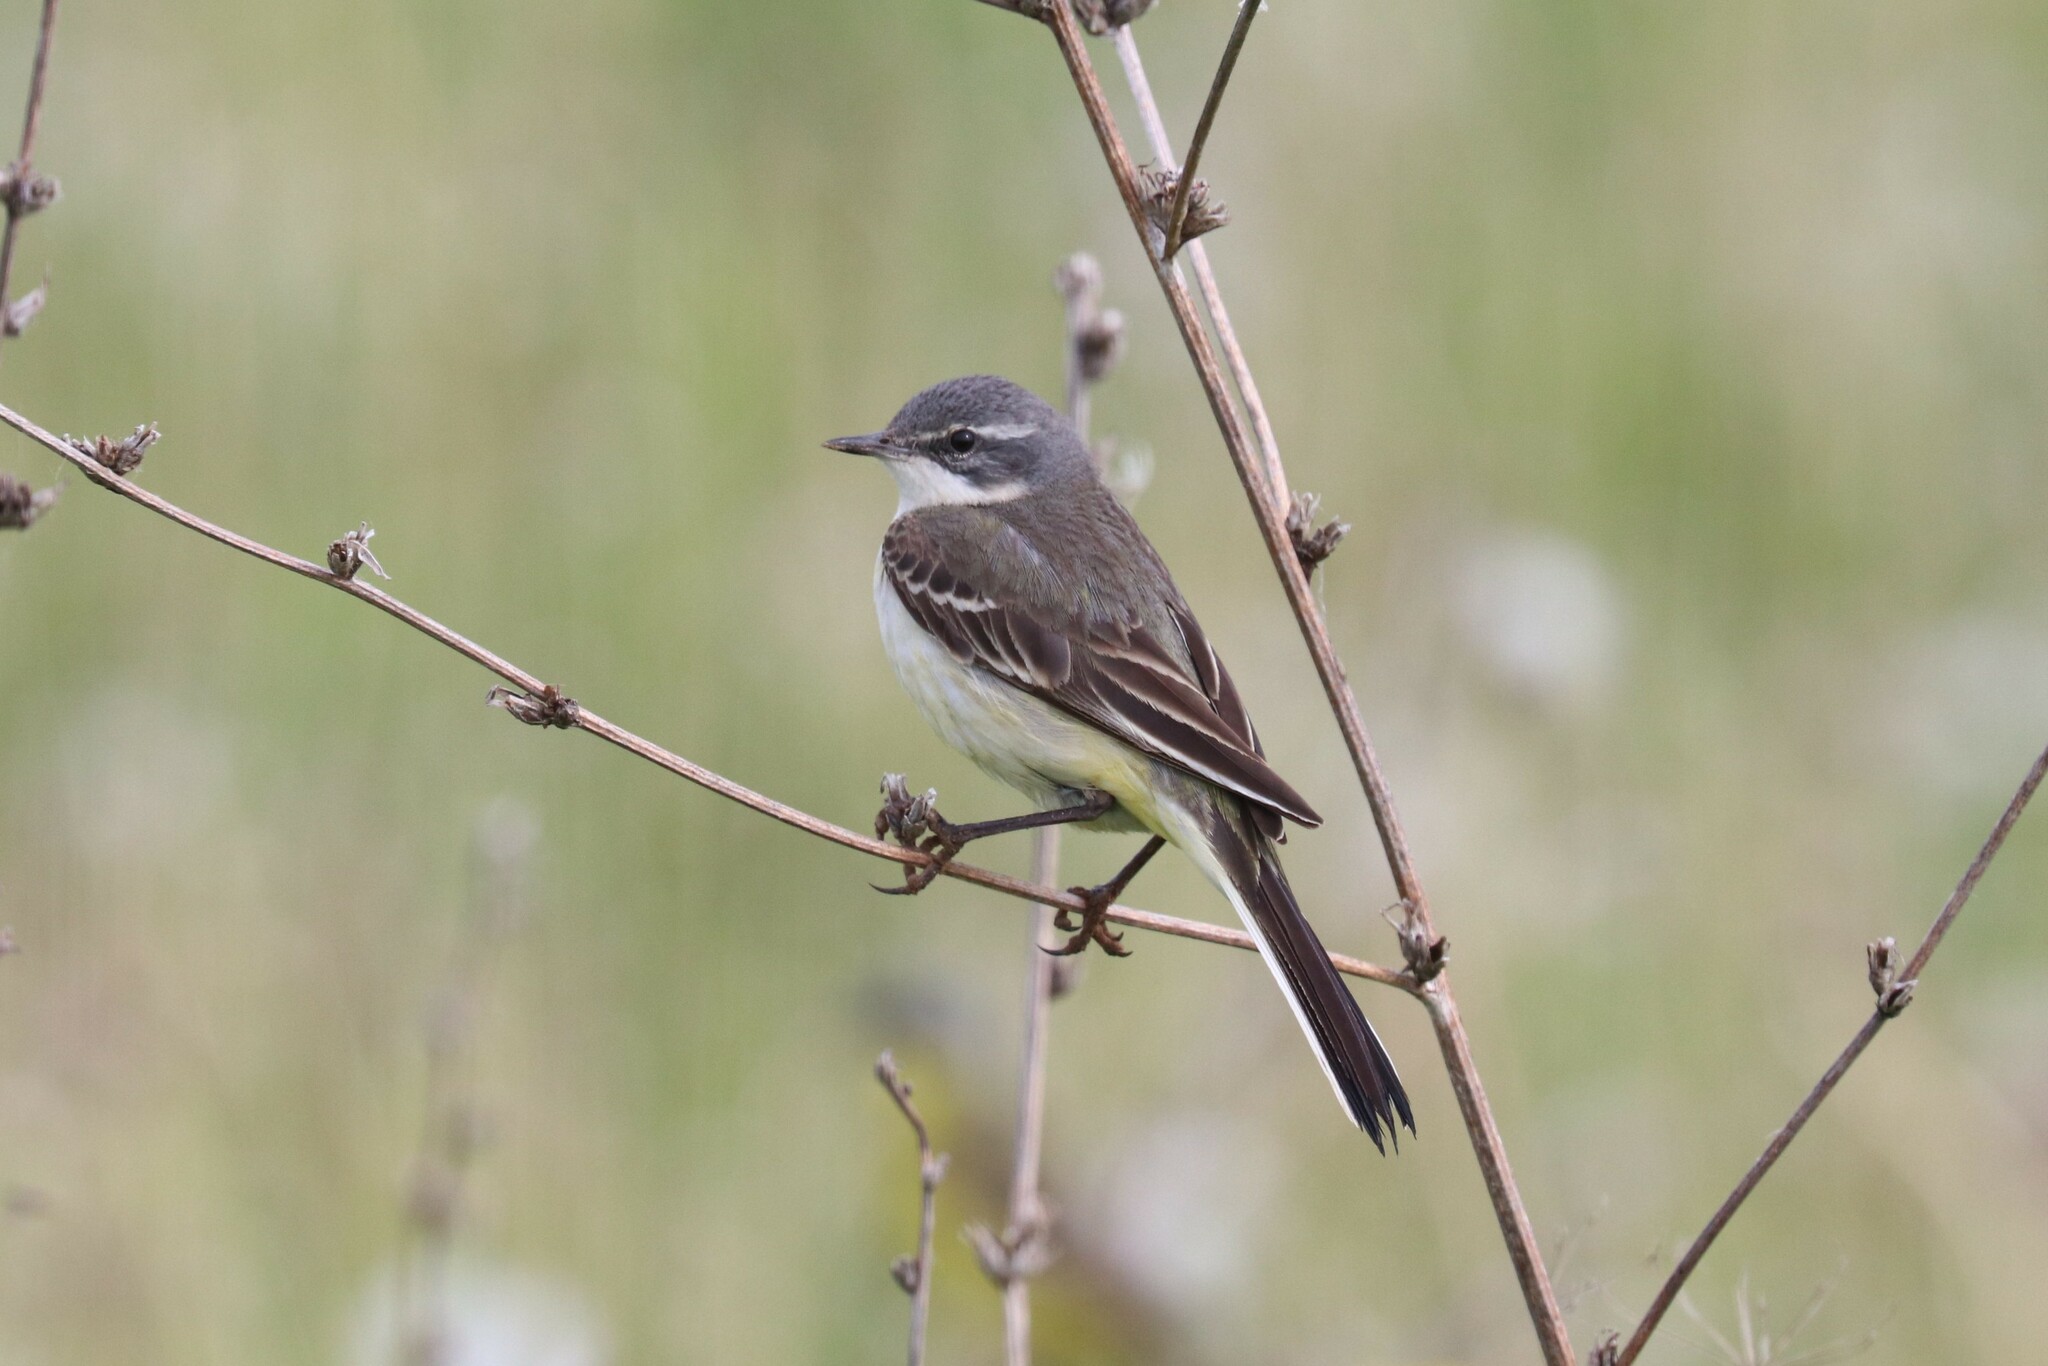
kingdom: Animalia
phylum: Chordata
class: Aves
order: Passeriformes
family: Motacillidae
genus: Motacilla
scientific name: Motacilla flava
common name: Western yellow wagtail
